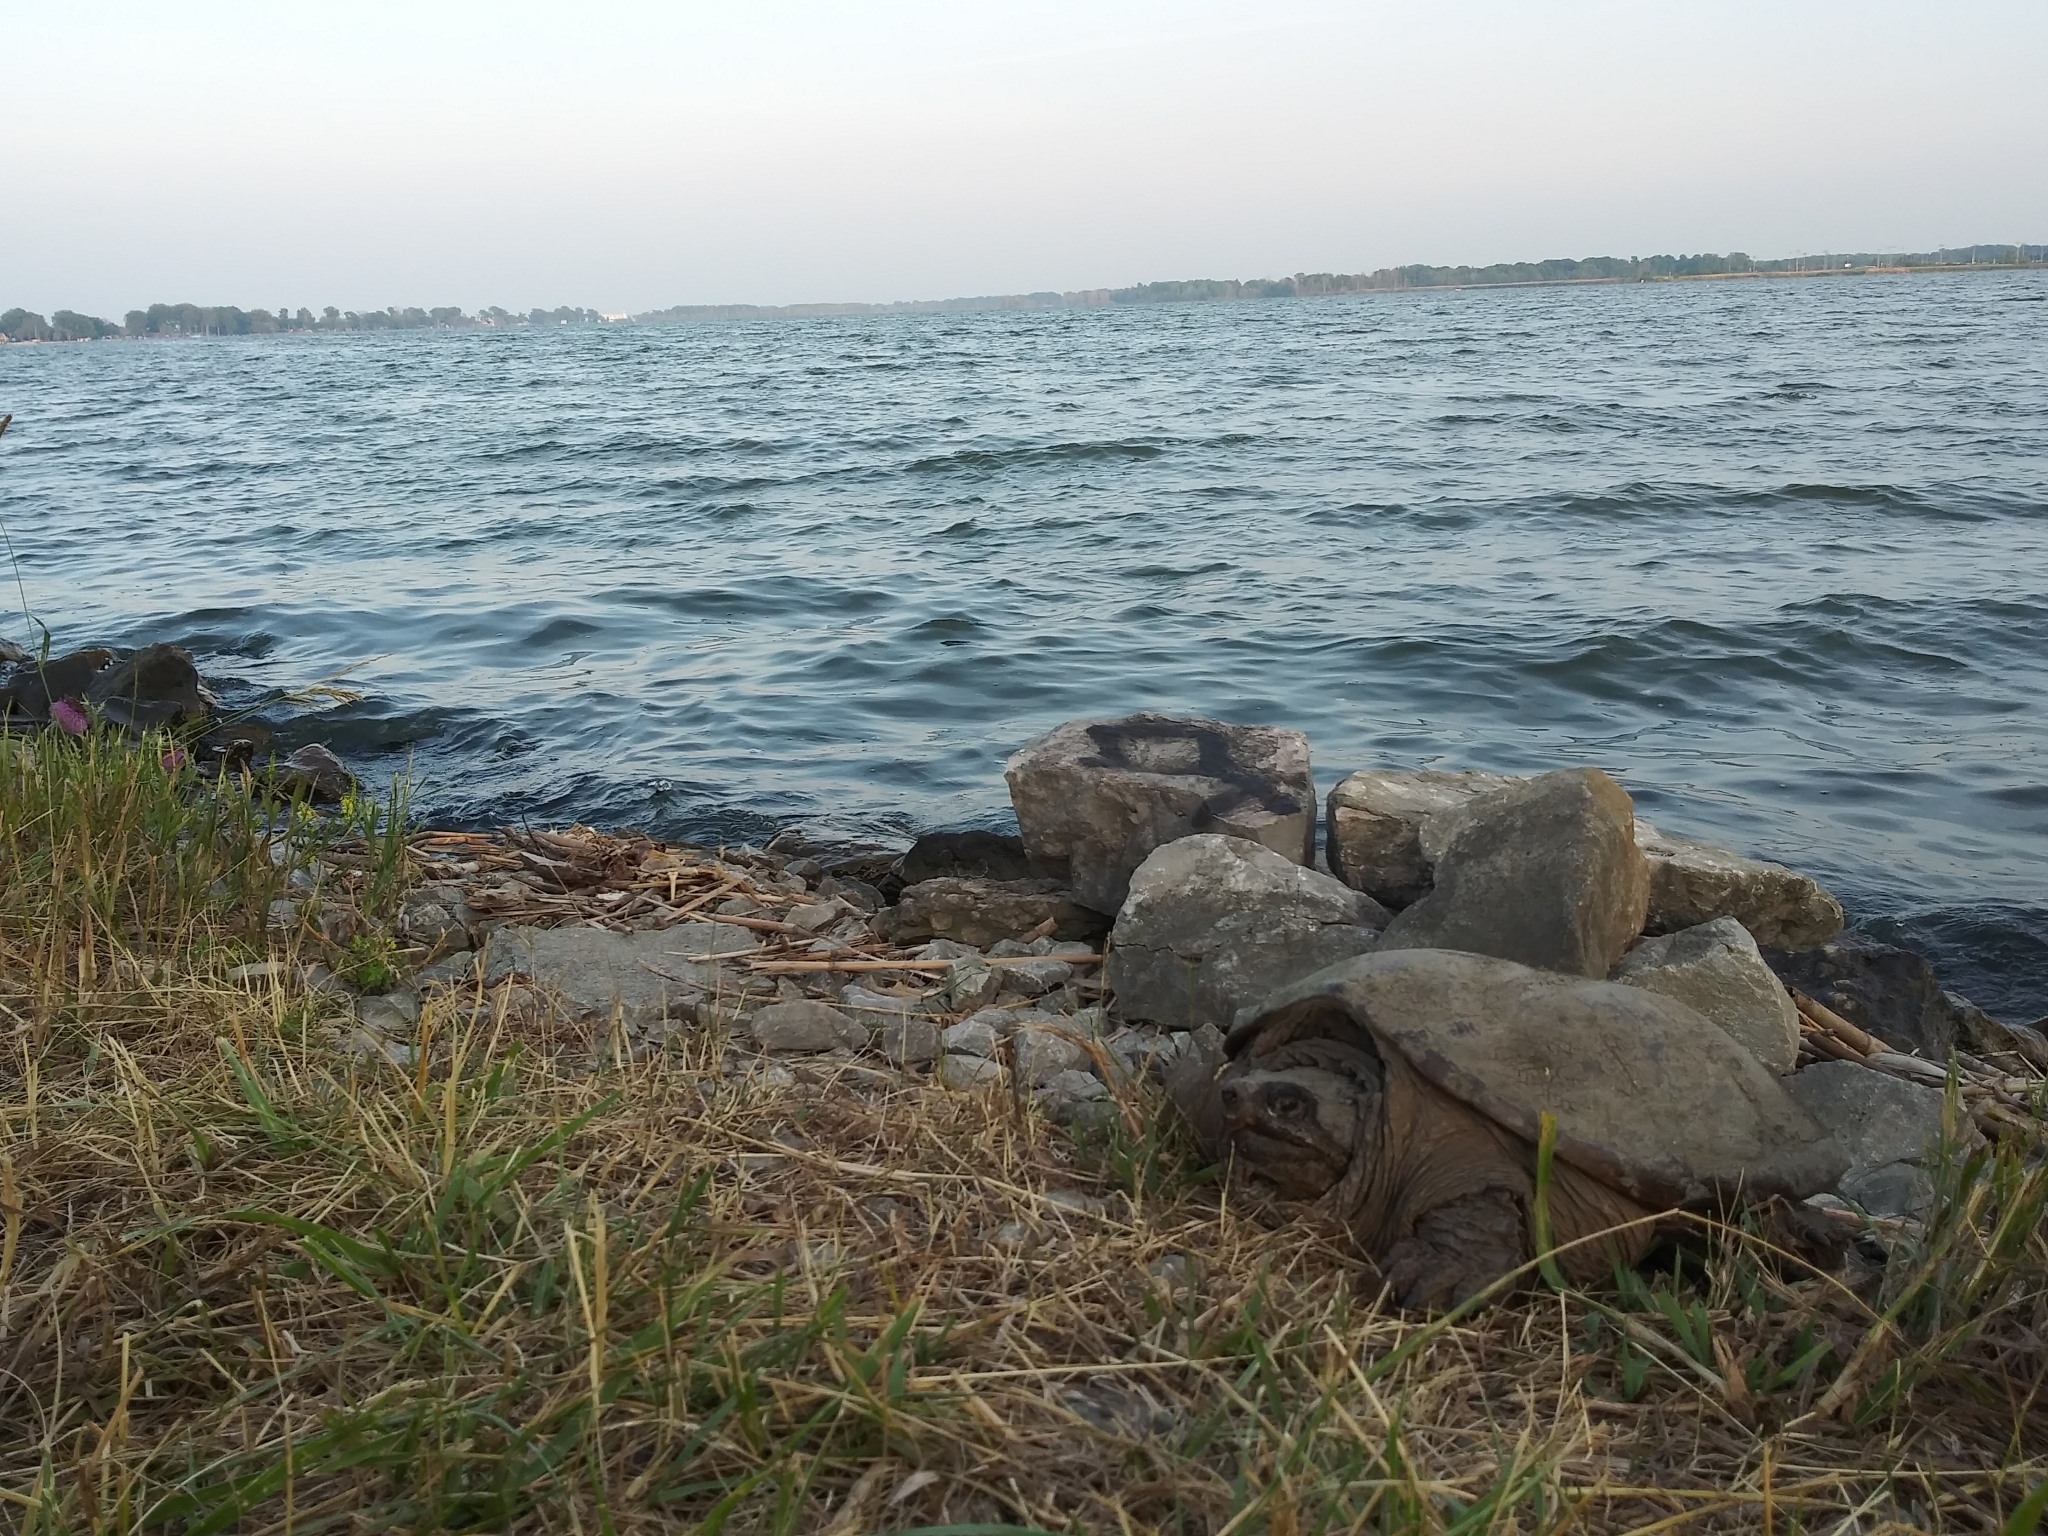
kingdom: Animalia
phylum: Chordata
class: Testudines
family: Chelydridae
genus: Chelydra
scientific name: Chelydra serpentina
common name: Common snapping turtle
